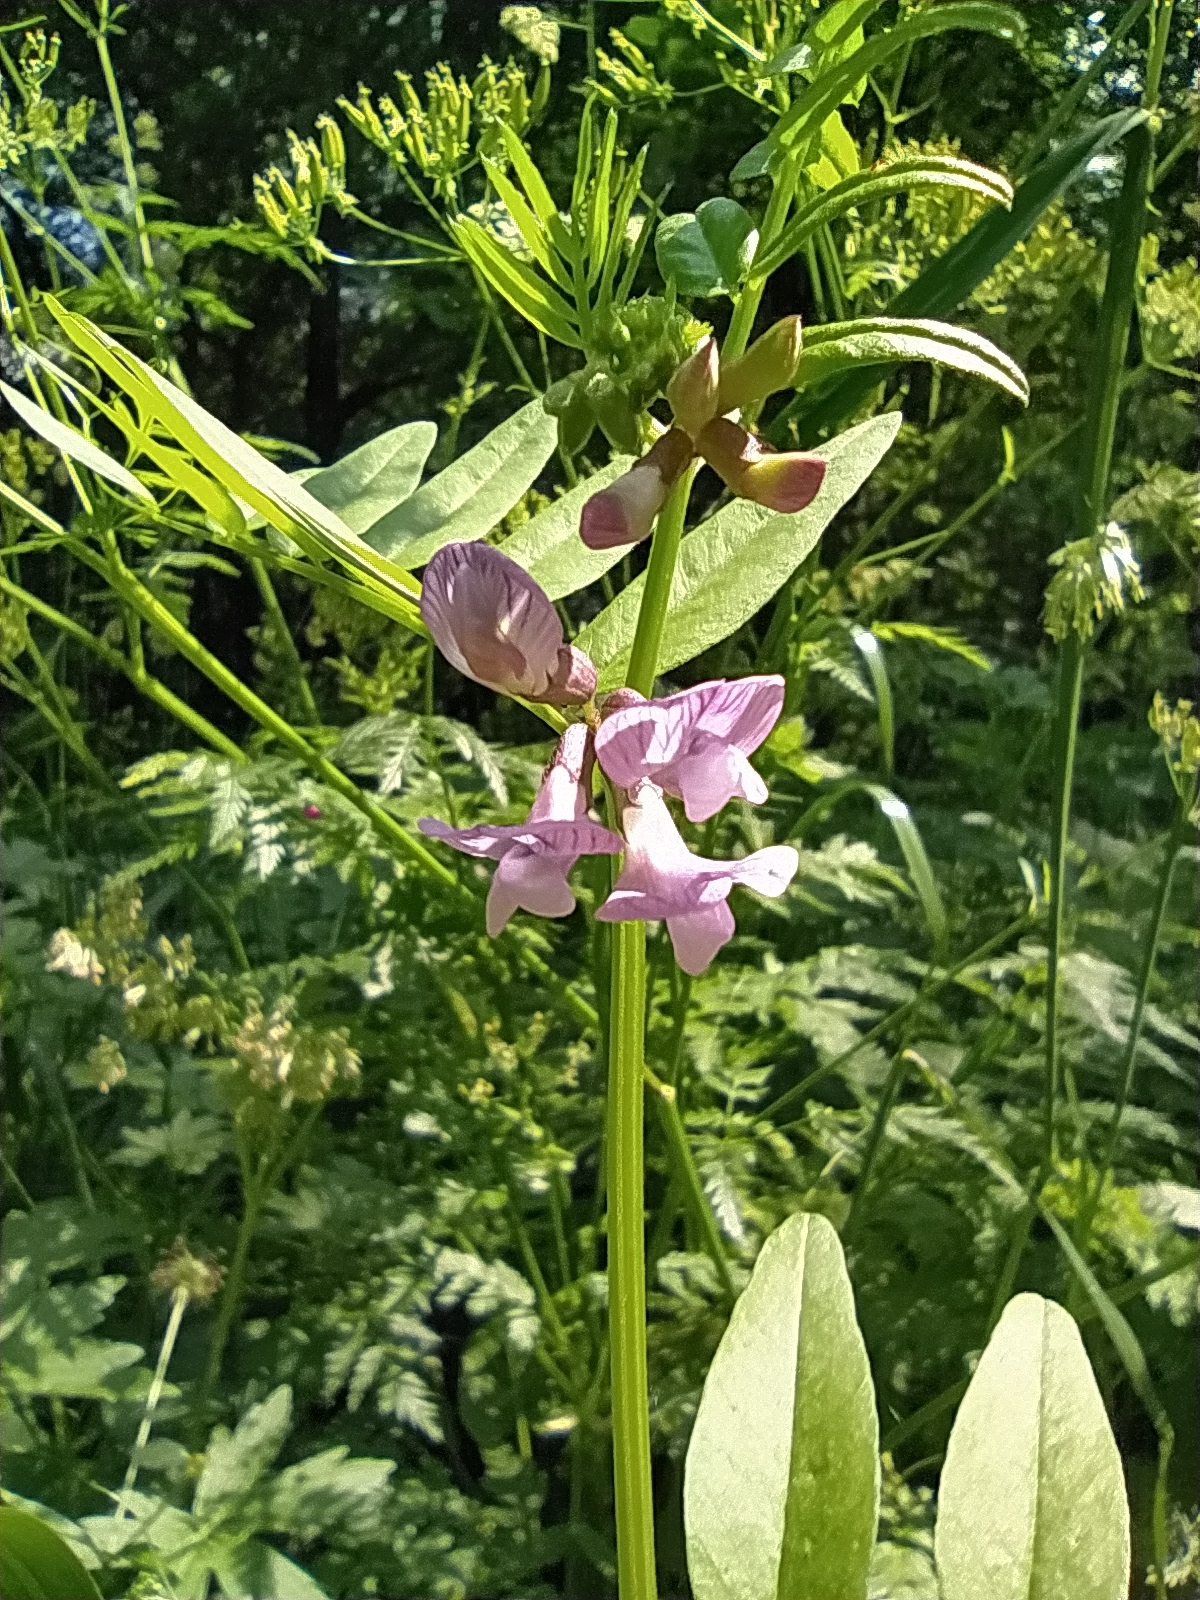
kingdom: Plantae
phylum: Tracheophyta
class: Magnoliopsida
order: Fabales
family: Fabaceae
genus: Vicia
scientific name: Vicia sepium
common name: Bush vetch
